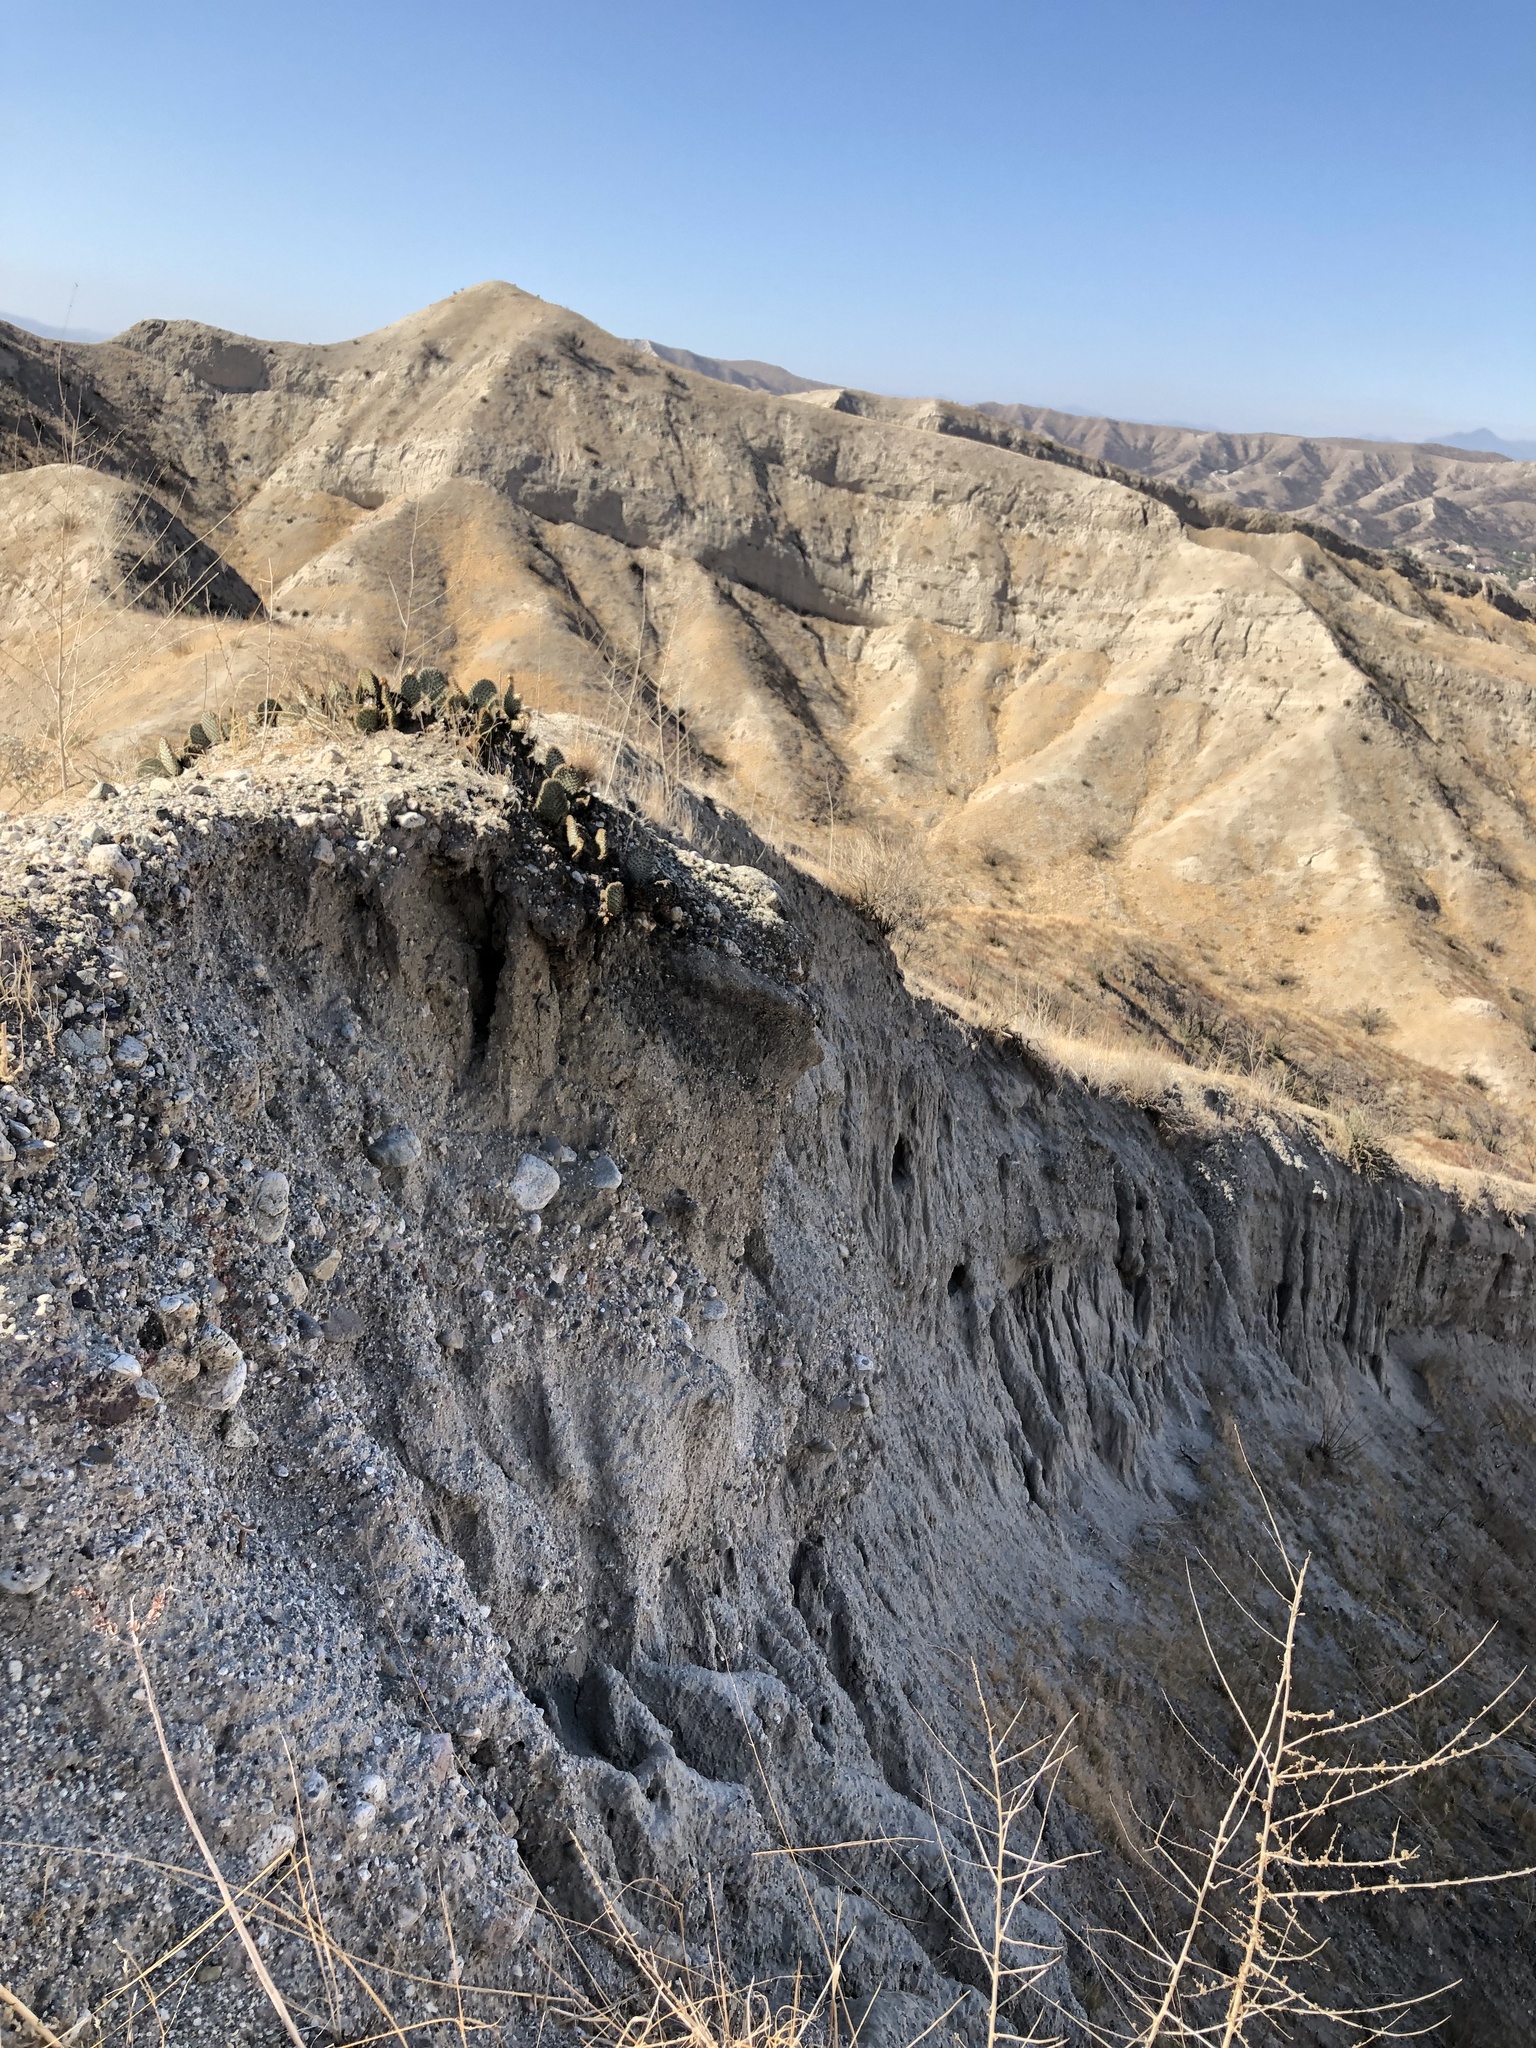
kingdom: Plantae
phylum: Tracheophyta
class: Magnoliopsida
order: Caryophyllales
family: Cactaceae
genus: Opuntia
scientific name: Opuntia basilaris
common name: Beavertail prickly-pear
